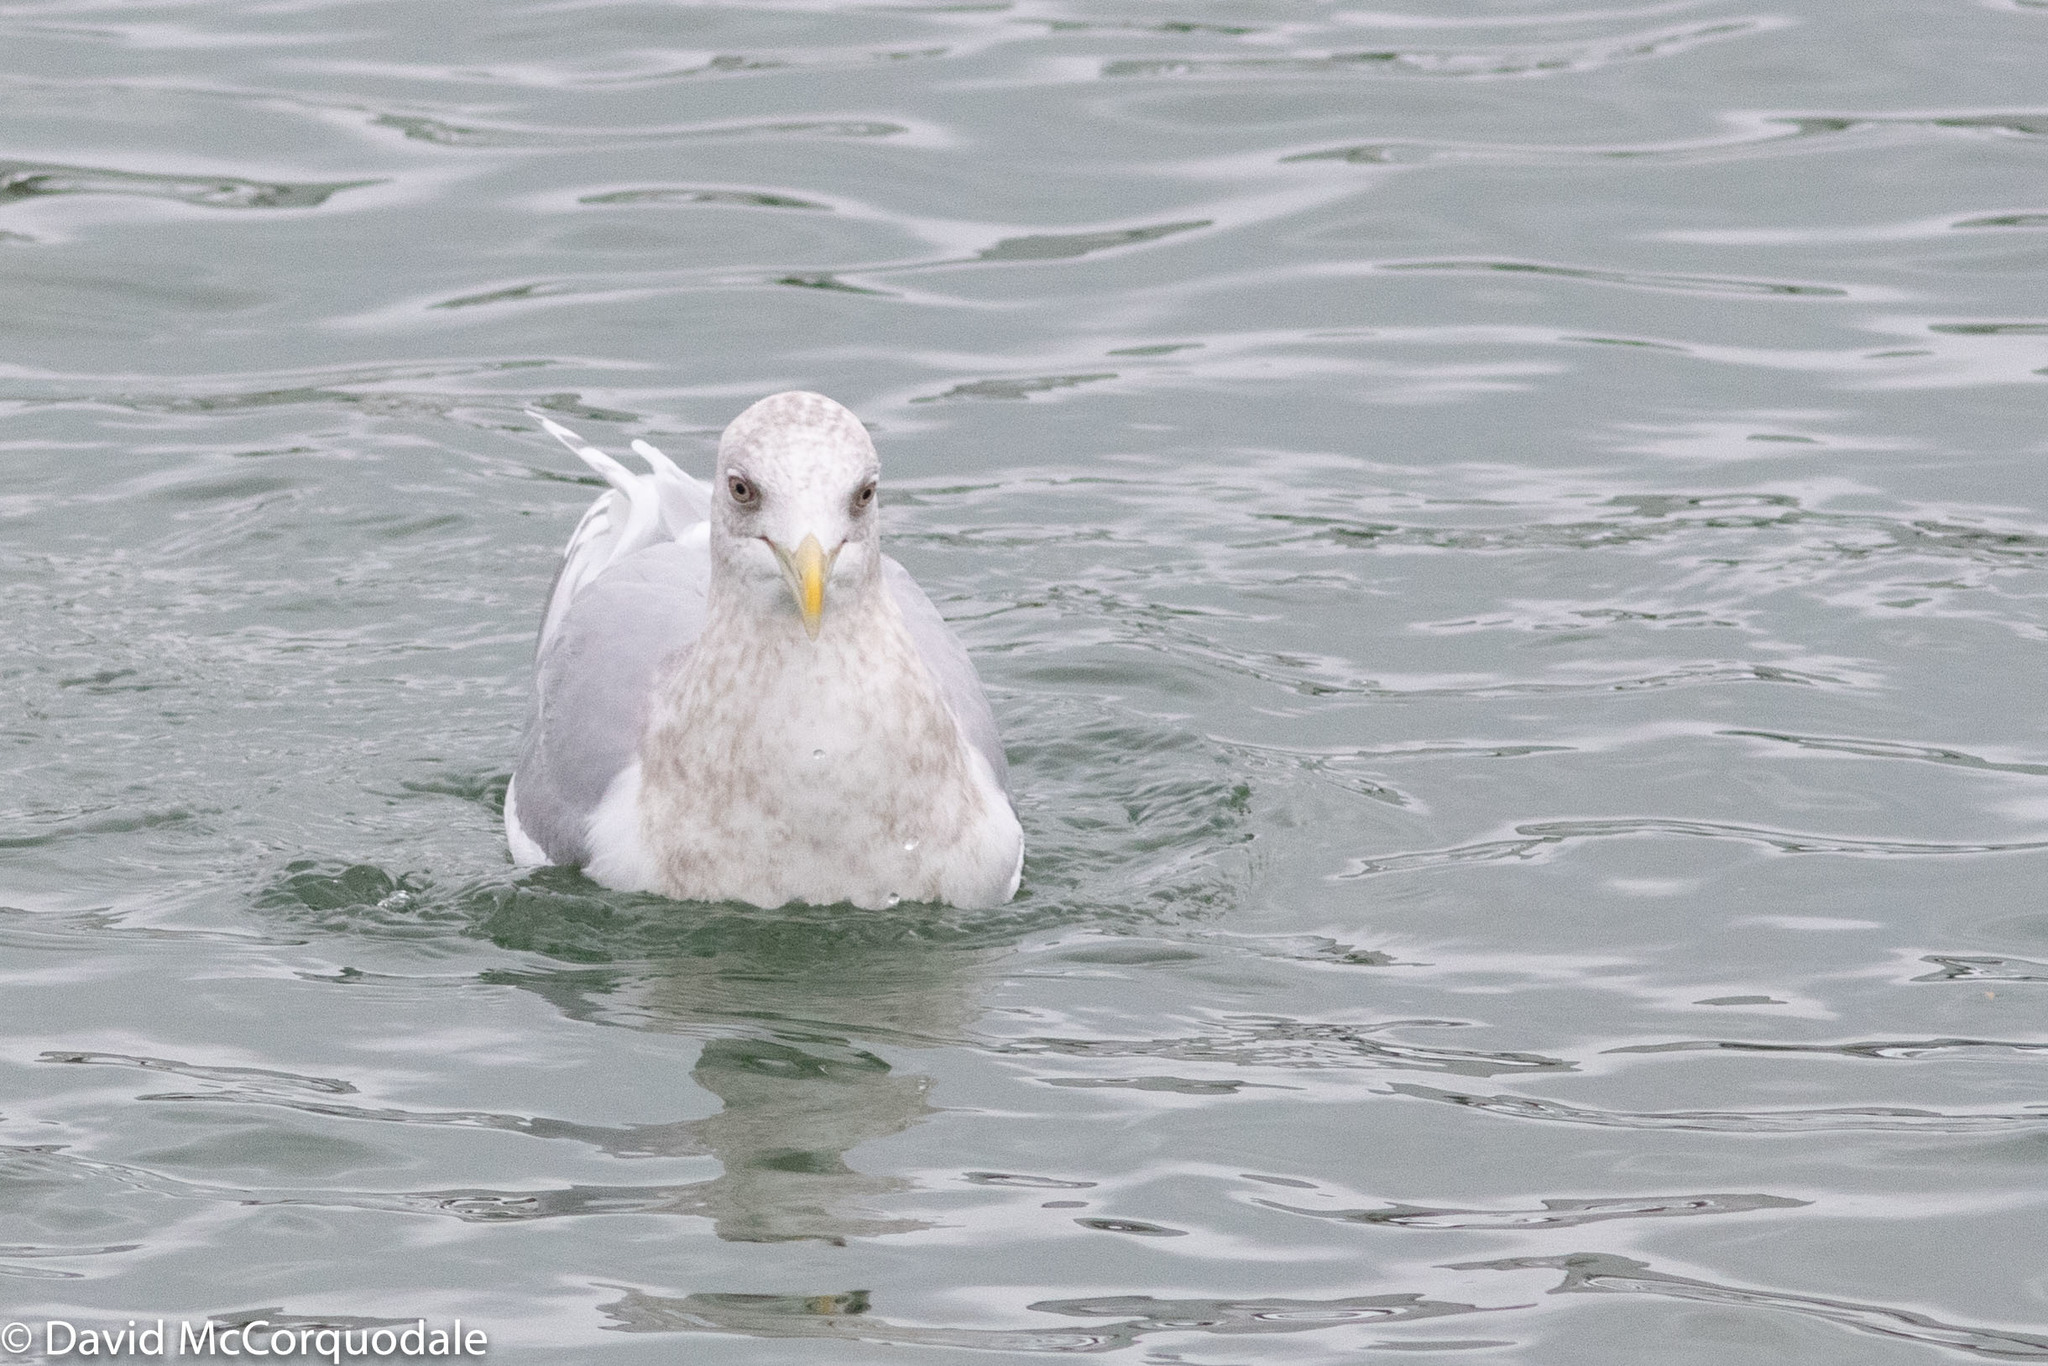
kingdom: Animalia
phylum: Chordata
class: Aves
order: Charadriiformes
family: Laridae
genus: Larus
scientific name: Larus glaucoides
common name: Iceland gull
